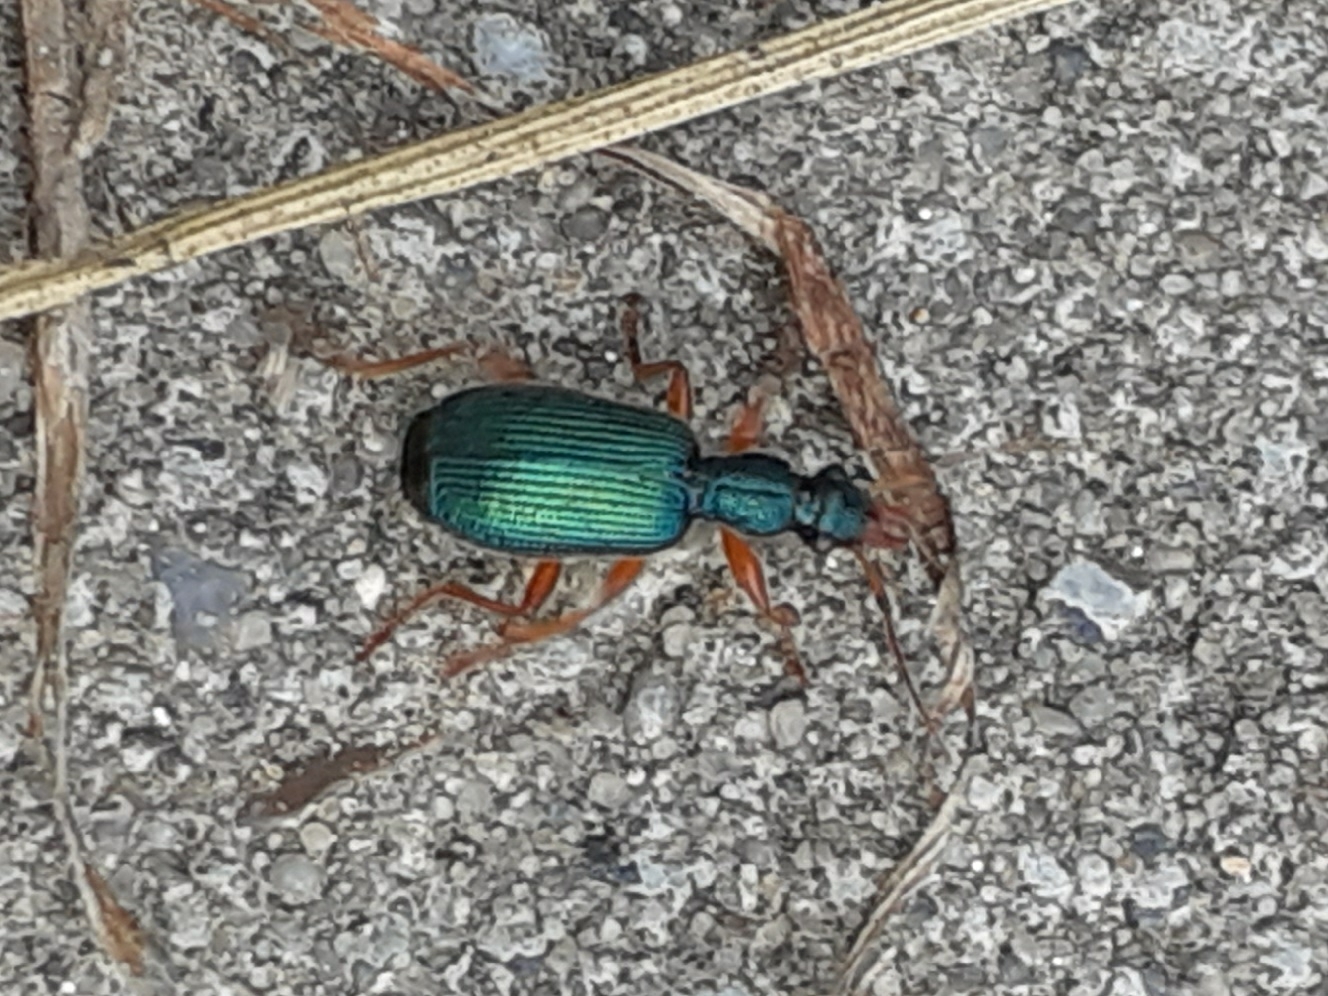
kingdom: Animalia
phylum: Arthropoda
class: Insecta
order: Coleoptera
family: Carabidae
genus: Drypta
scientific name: Drypta dentata
